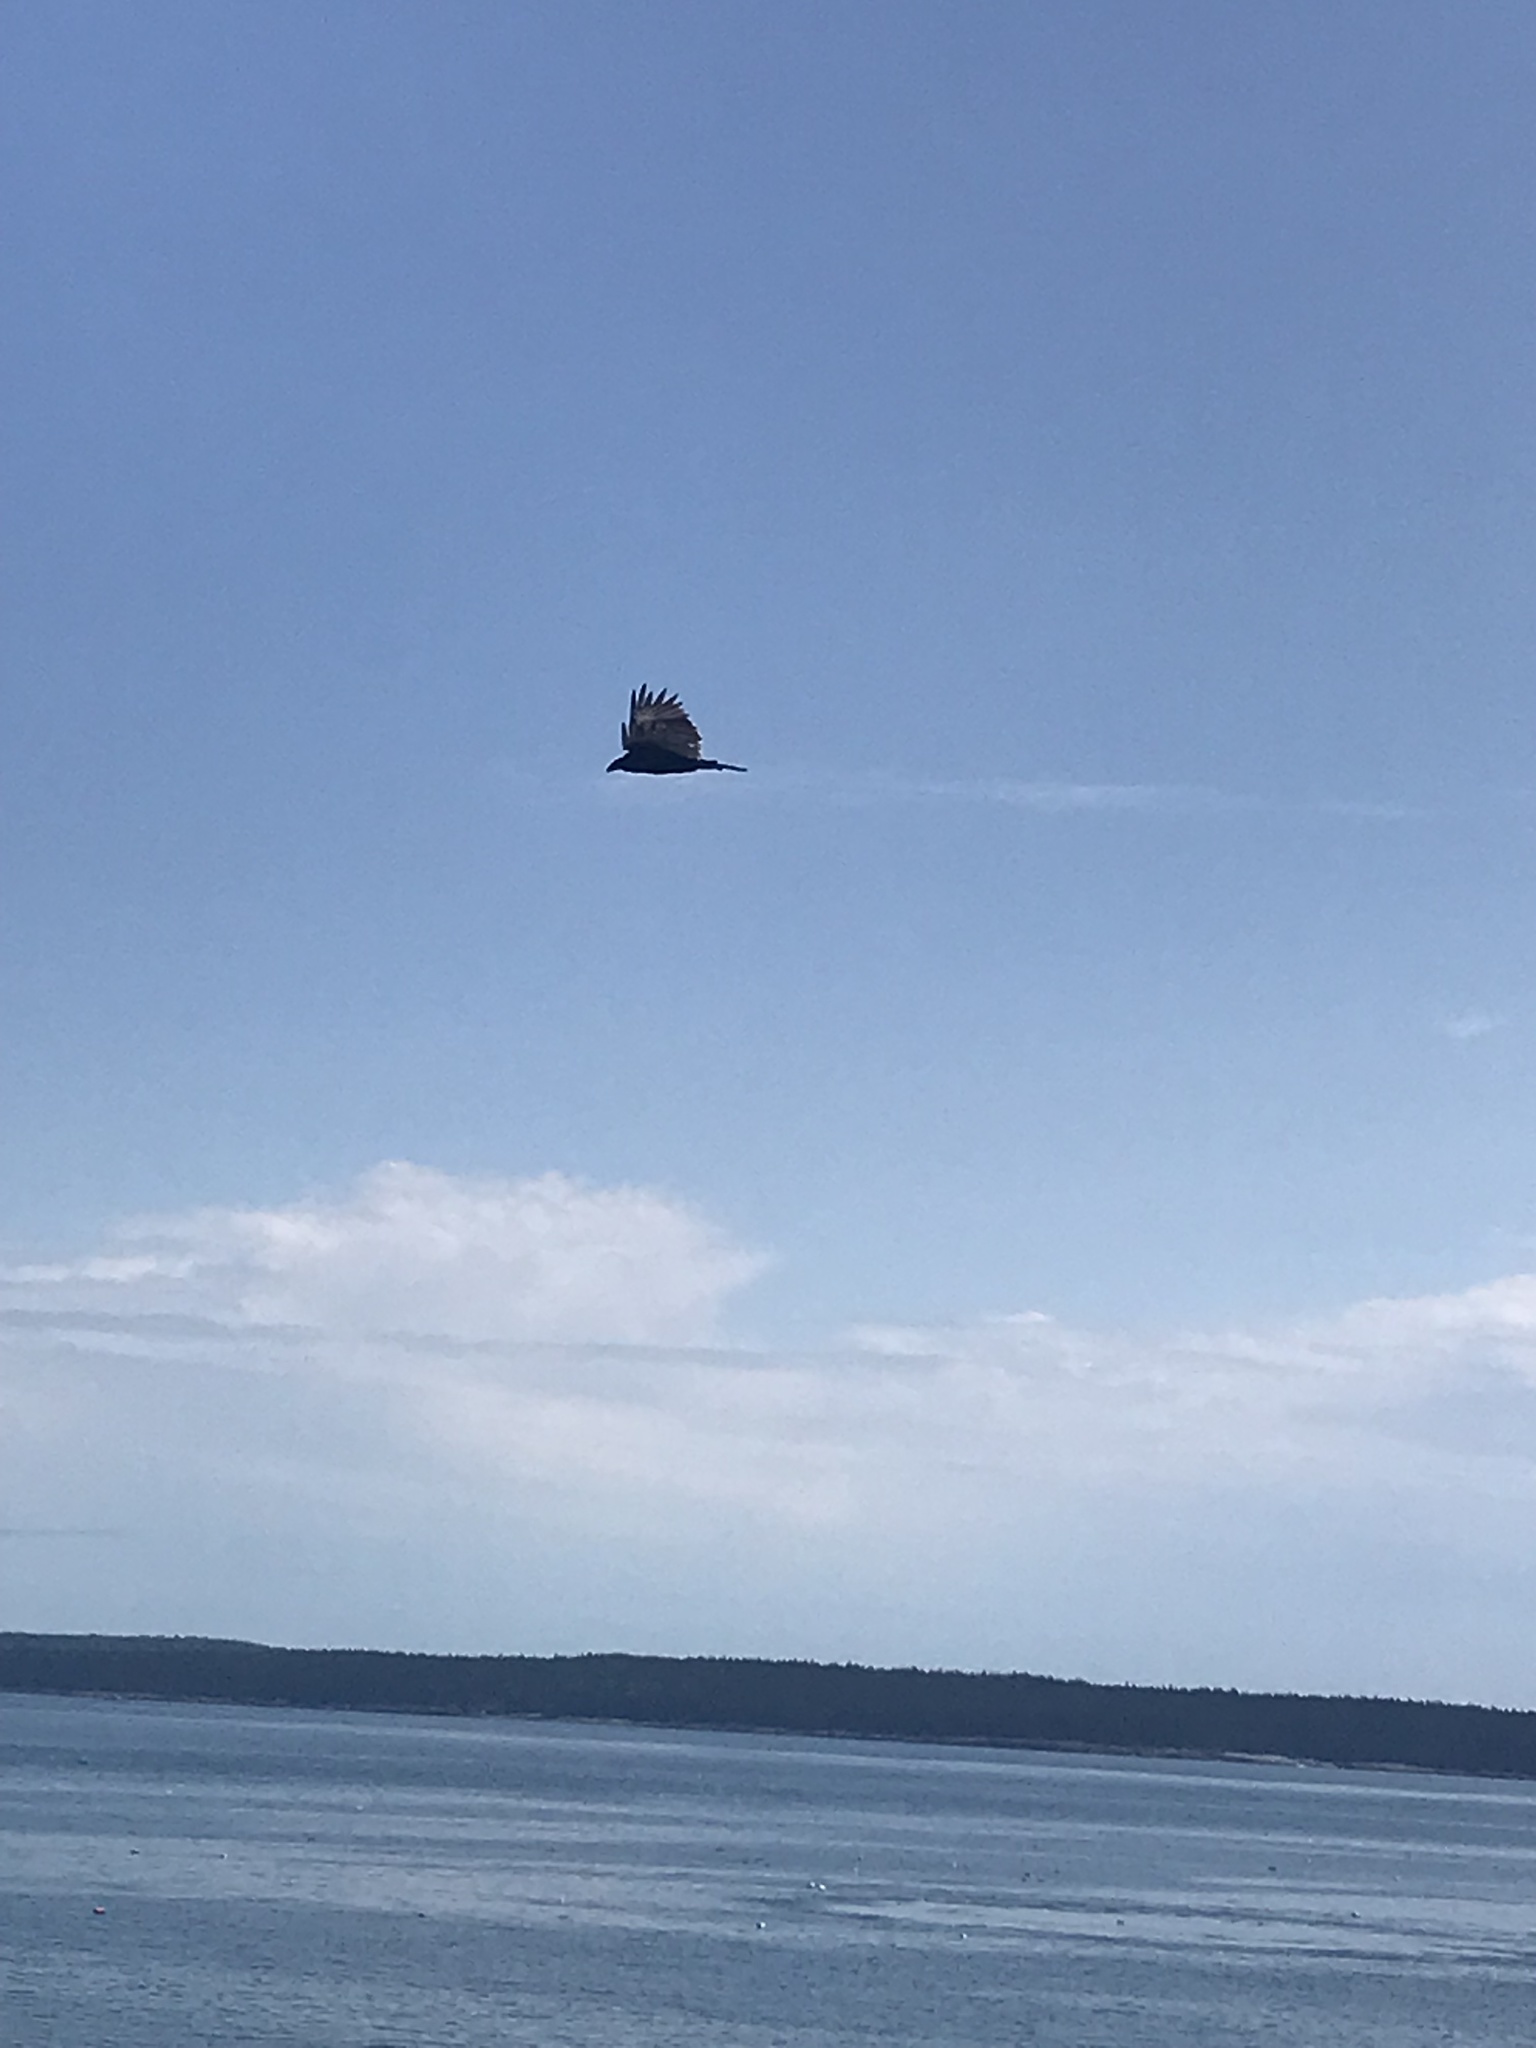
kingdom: Animalia
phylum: Chordata
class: Aves
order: Accipitriformes
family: Cathartidae
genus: Cathartes
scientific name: Cathartes aura
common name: Turkey vulture
